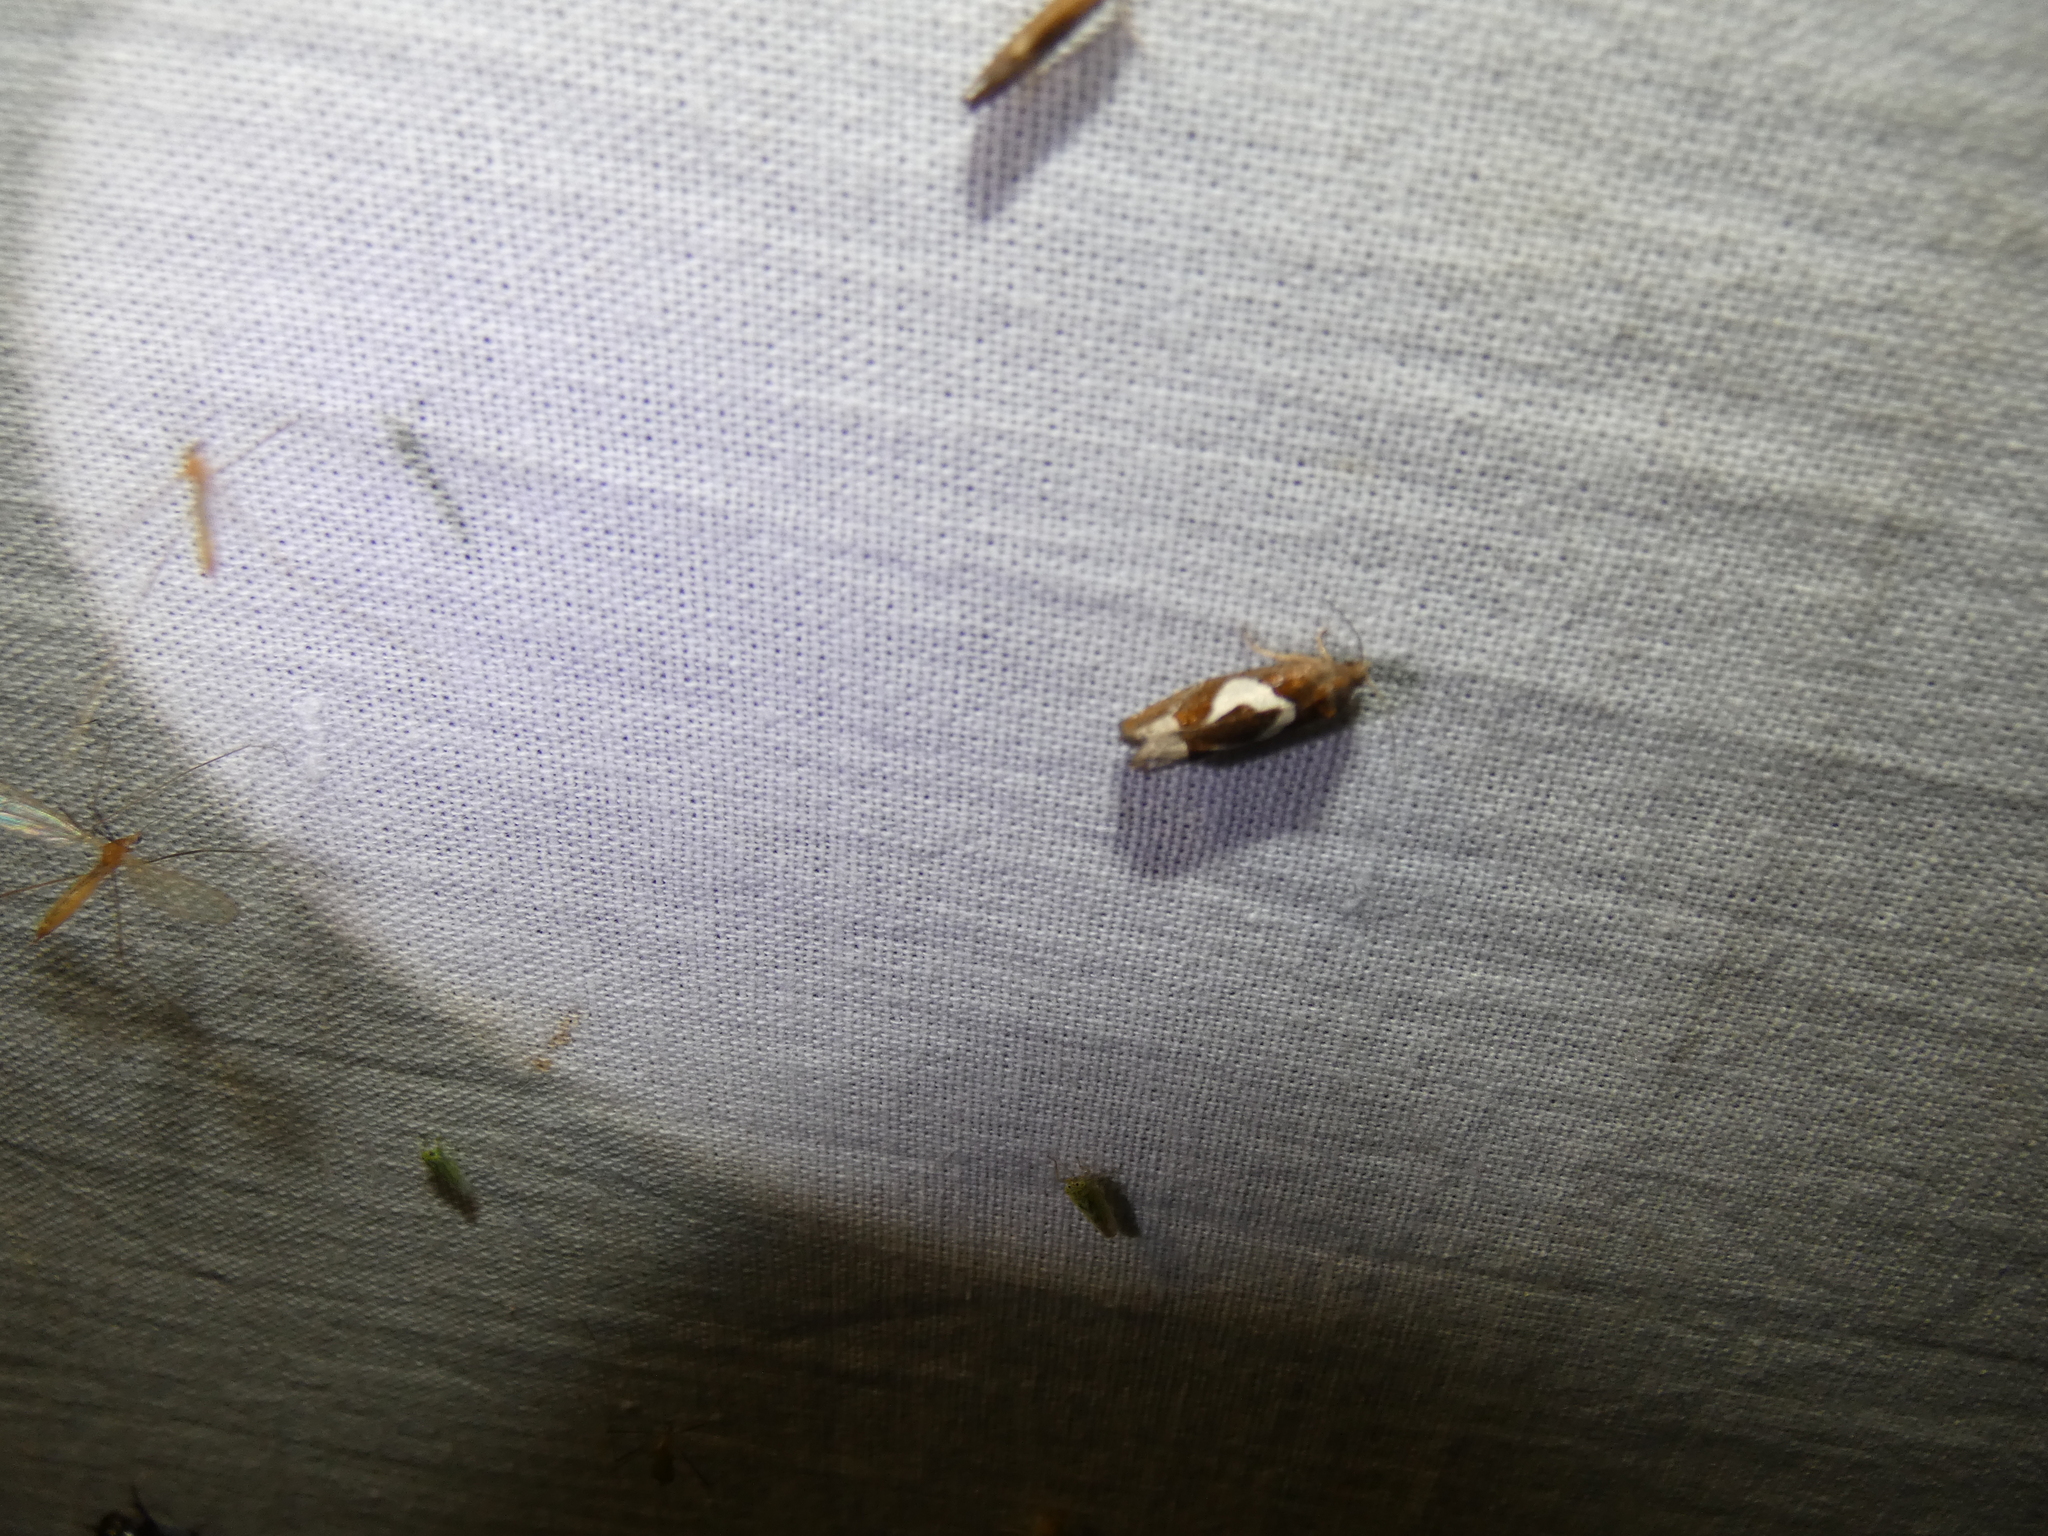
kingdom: Animalia
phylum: Arthropoda
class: Insecta
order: Lepidoptera
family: Tortricidae
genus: Epiblema
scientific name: Epiblema foenella
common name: White-foot bell
